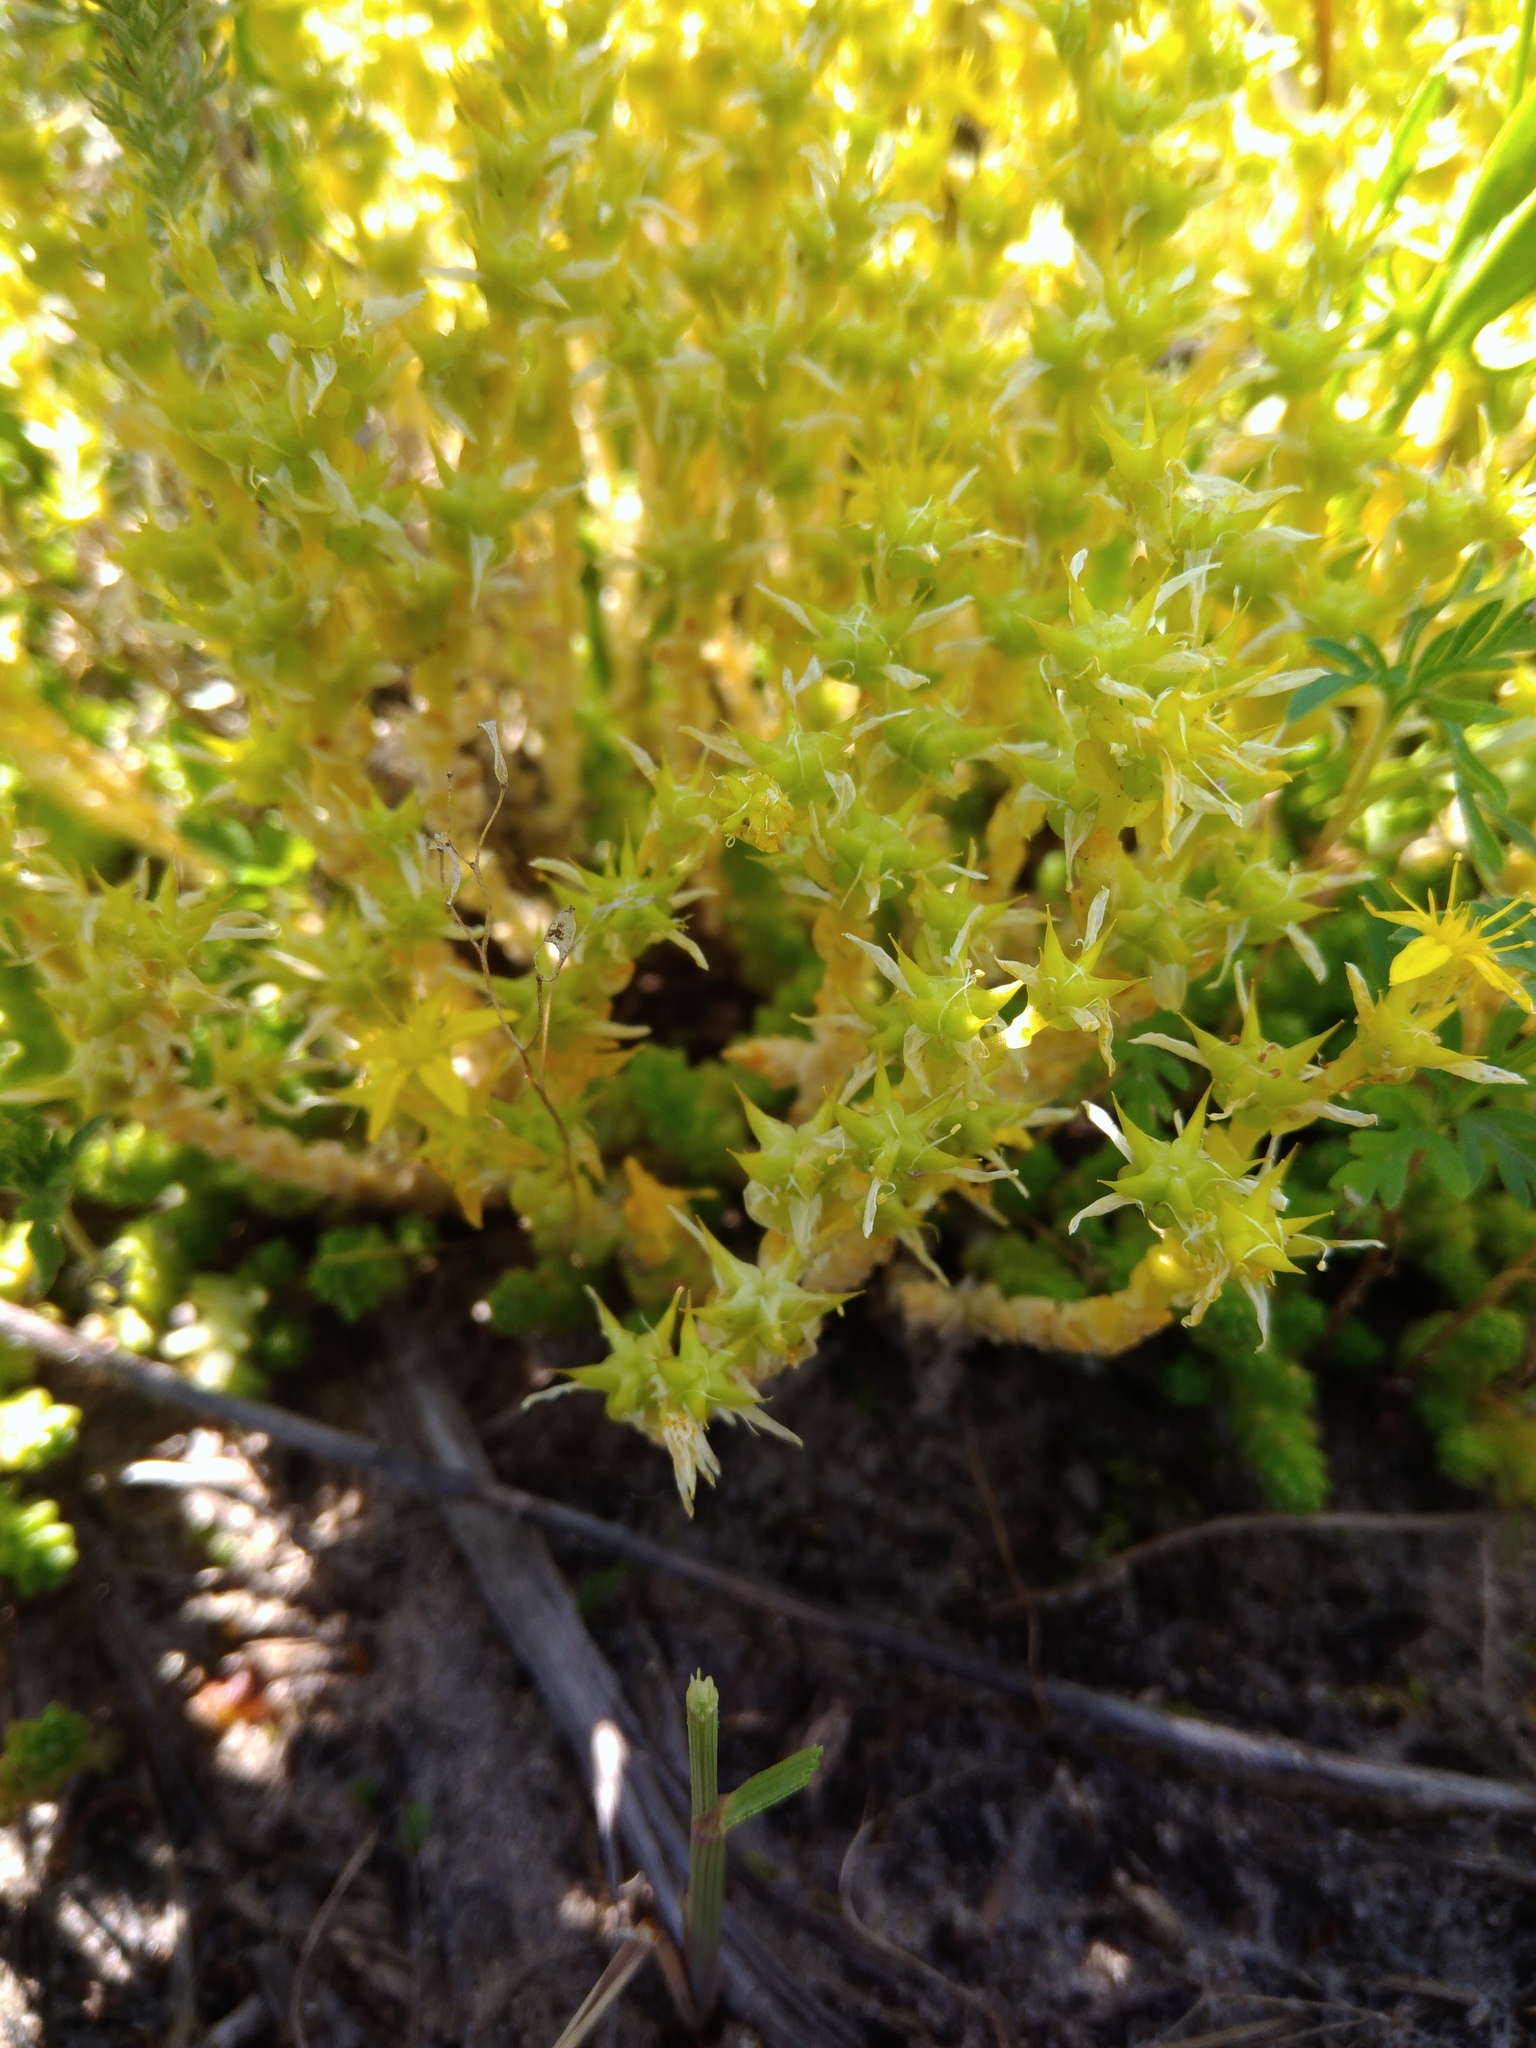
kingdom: Plantae
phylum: Tracheophyta
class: Magnoliopsida
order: Saxifragales
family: Crassulaceae
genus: Sedum
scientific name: Sedum acre
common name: Biting stonecrop
